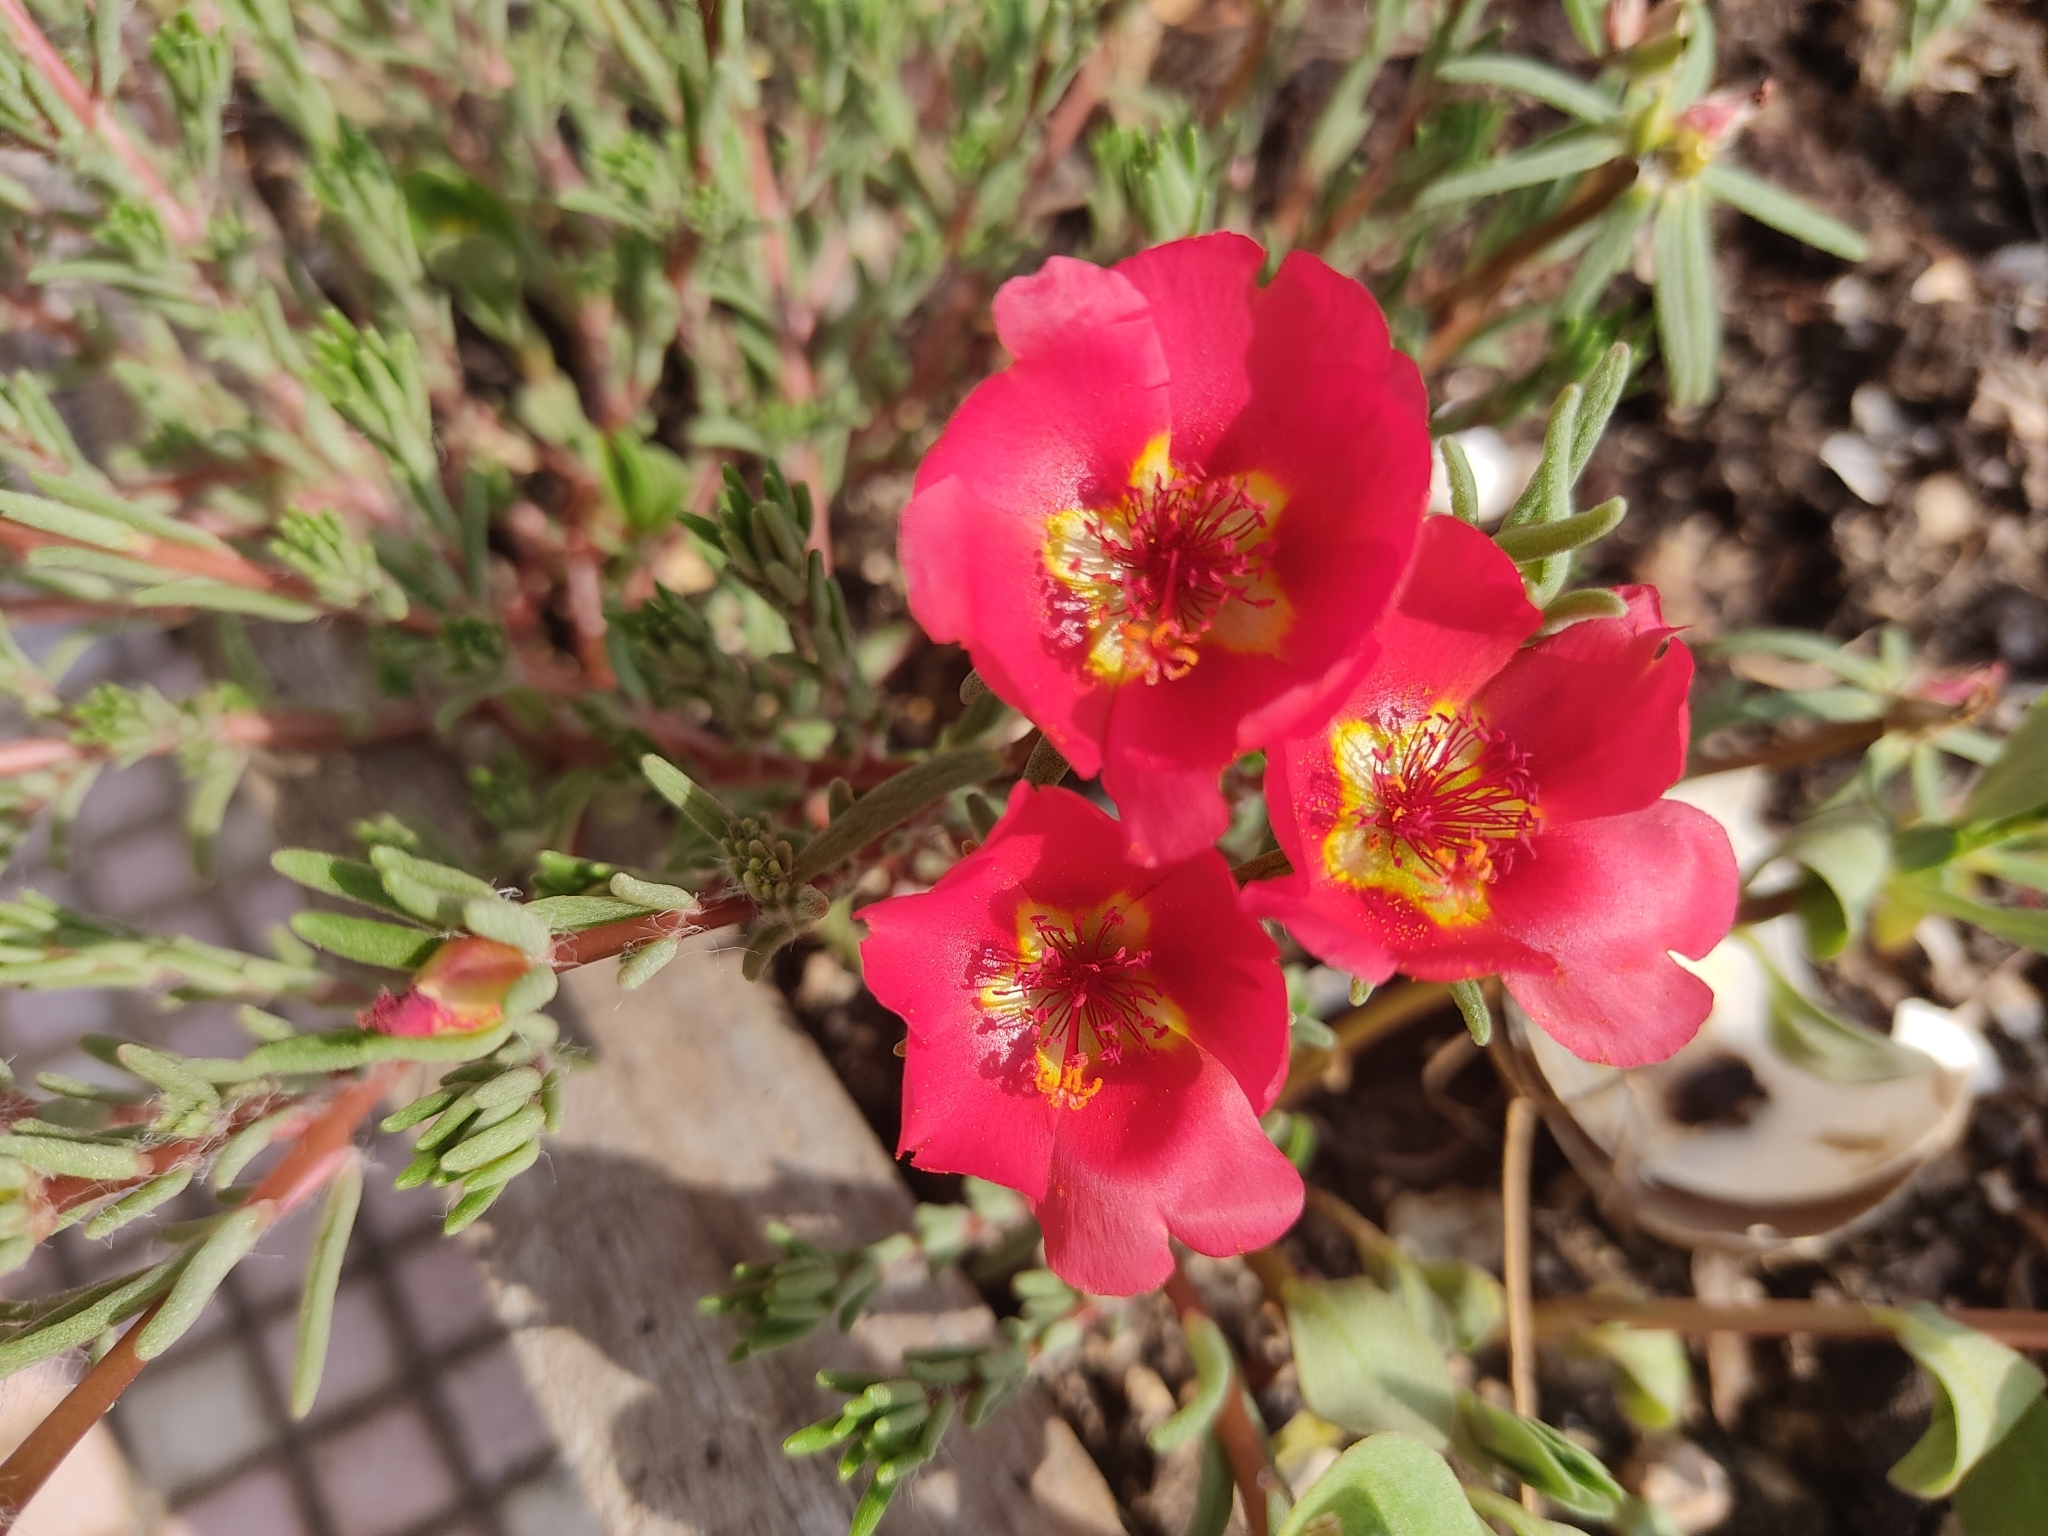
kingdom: Plantae
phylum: Tracheophyta
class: Magnoliopsida
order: Caryophyllales
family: Portulacaceae
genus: Portulaca
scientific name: Portulaca grandiflora
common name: Moss-rose
